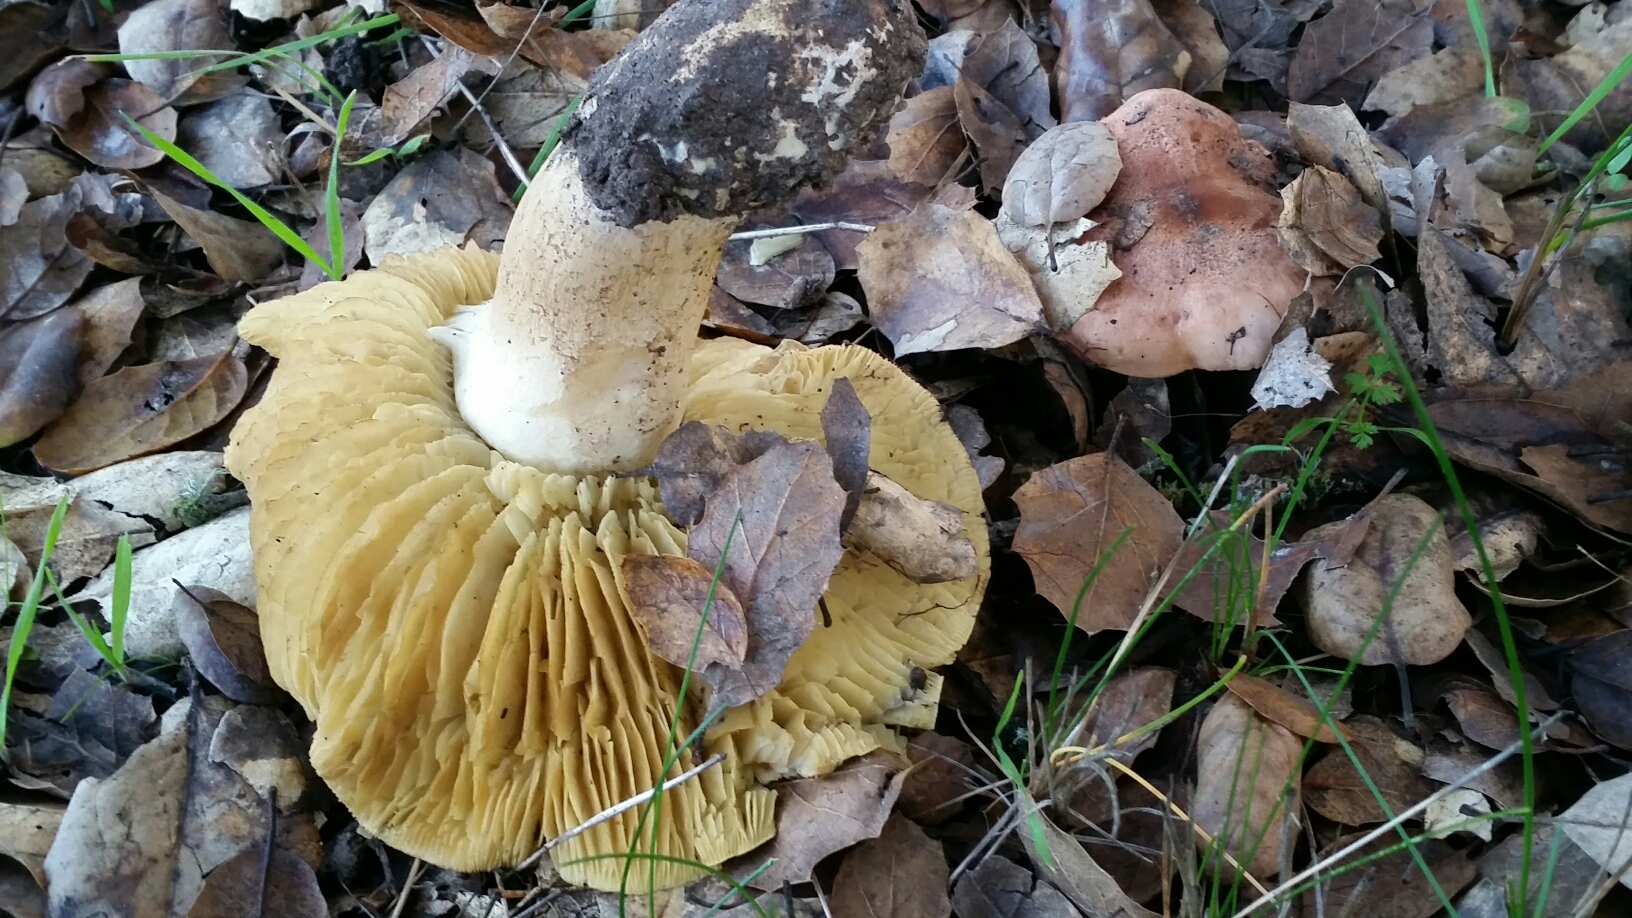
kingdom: Fungi
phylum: Basidiomycota
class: Agaricomycetes
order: Agaricales
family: Tricholomataceae
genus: Melanoleuca
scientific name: Melanoleuca dryophila
